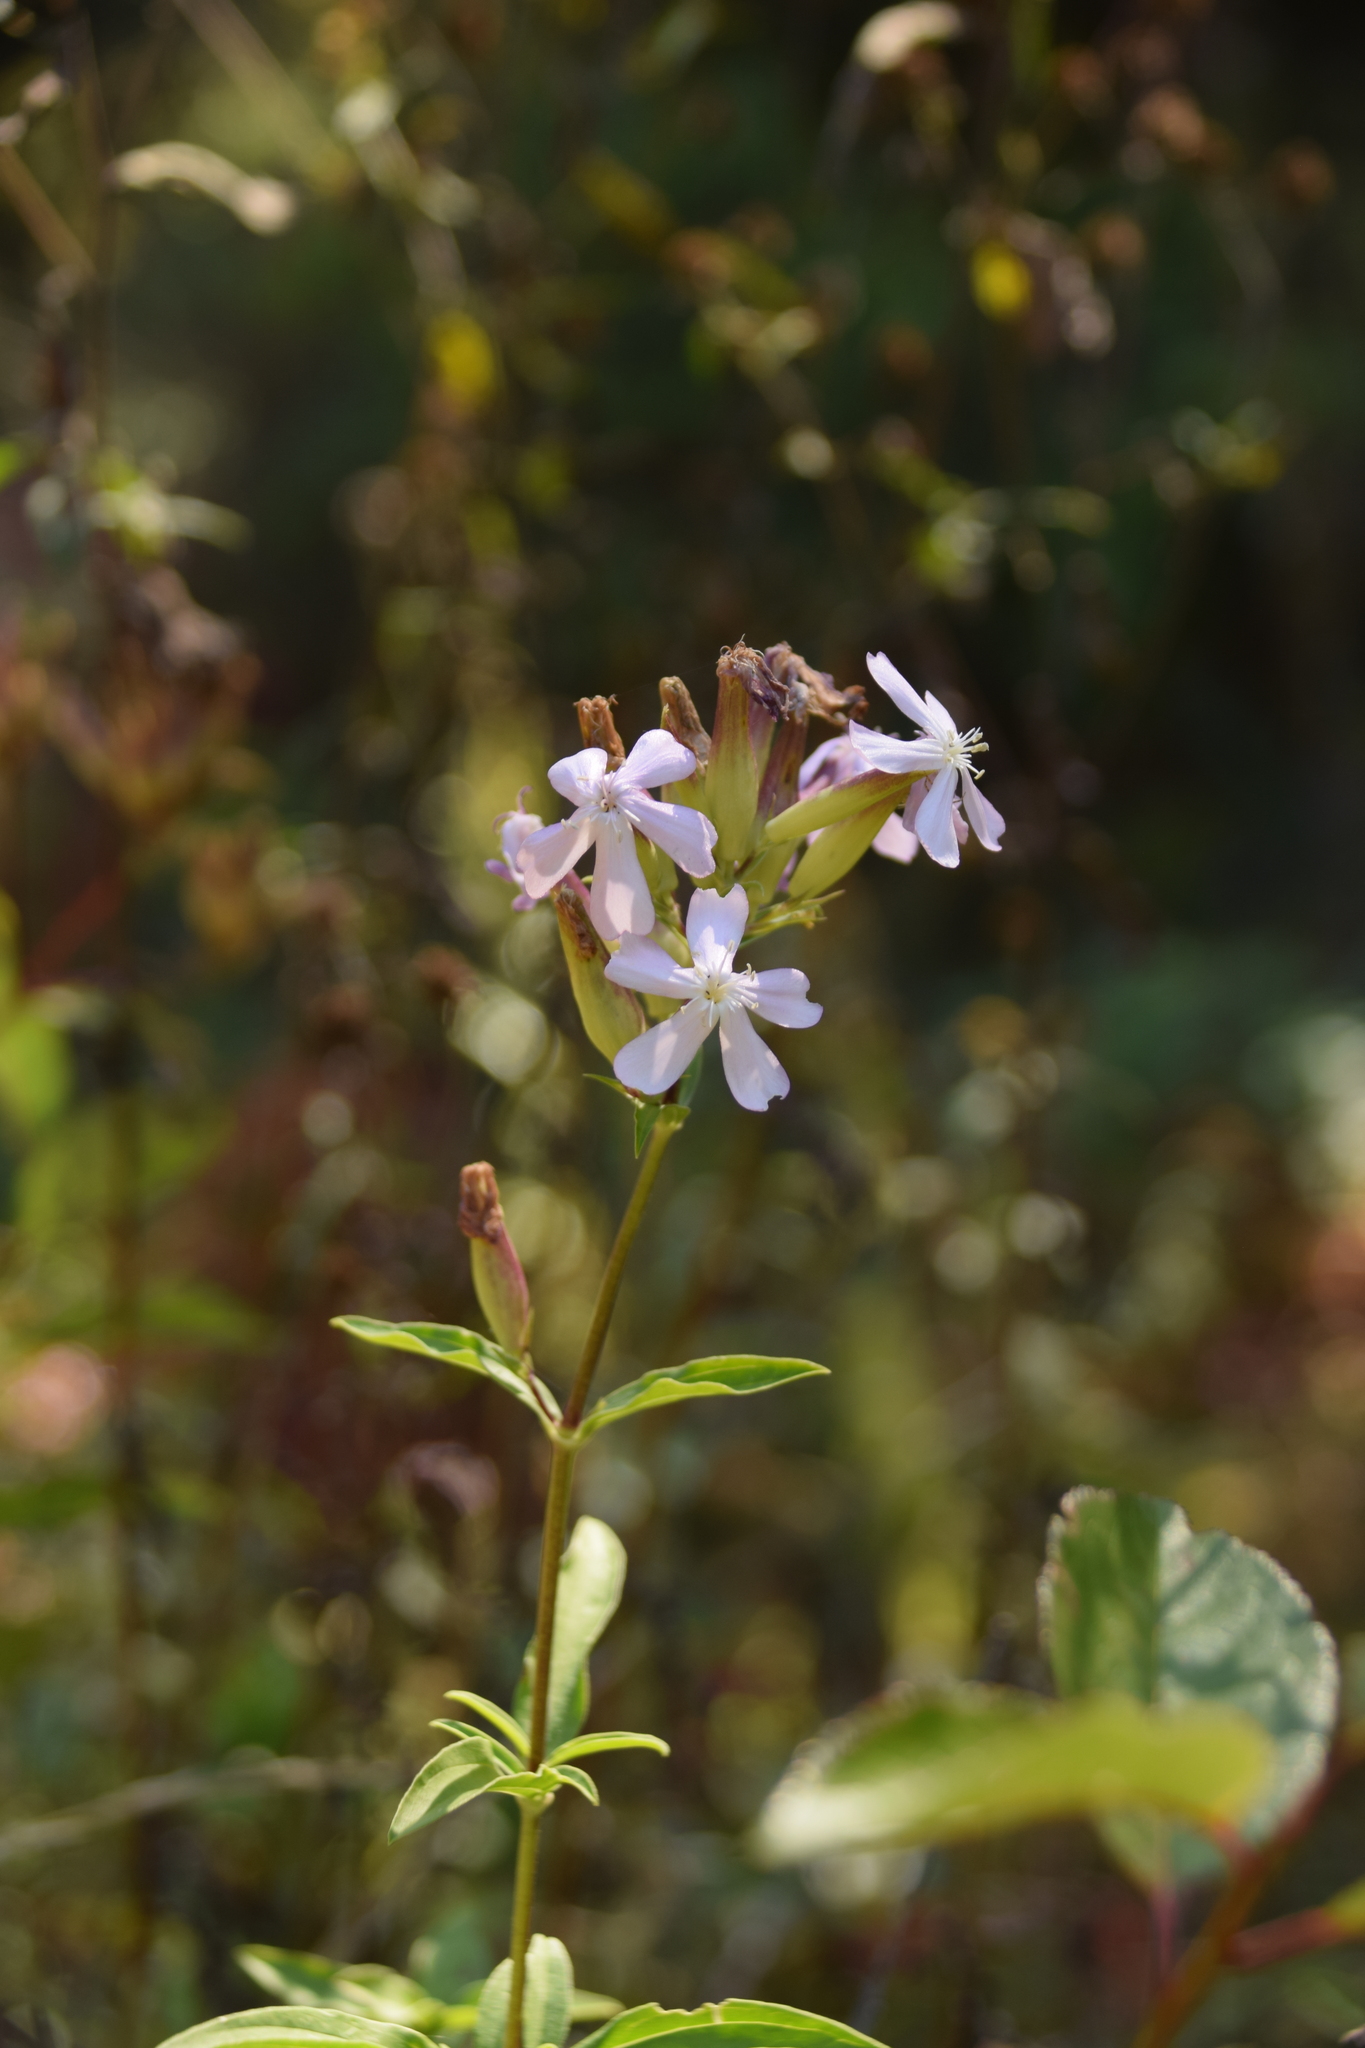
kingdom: Plantae
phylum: Tracheophyta
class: Magnoliopsida
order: Caryophyllales
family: Caryophyllaceae
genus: Saponaria
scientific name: Saponaria officinalis
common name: Soapwort
